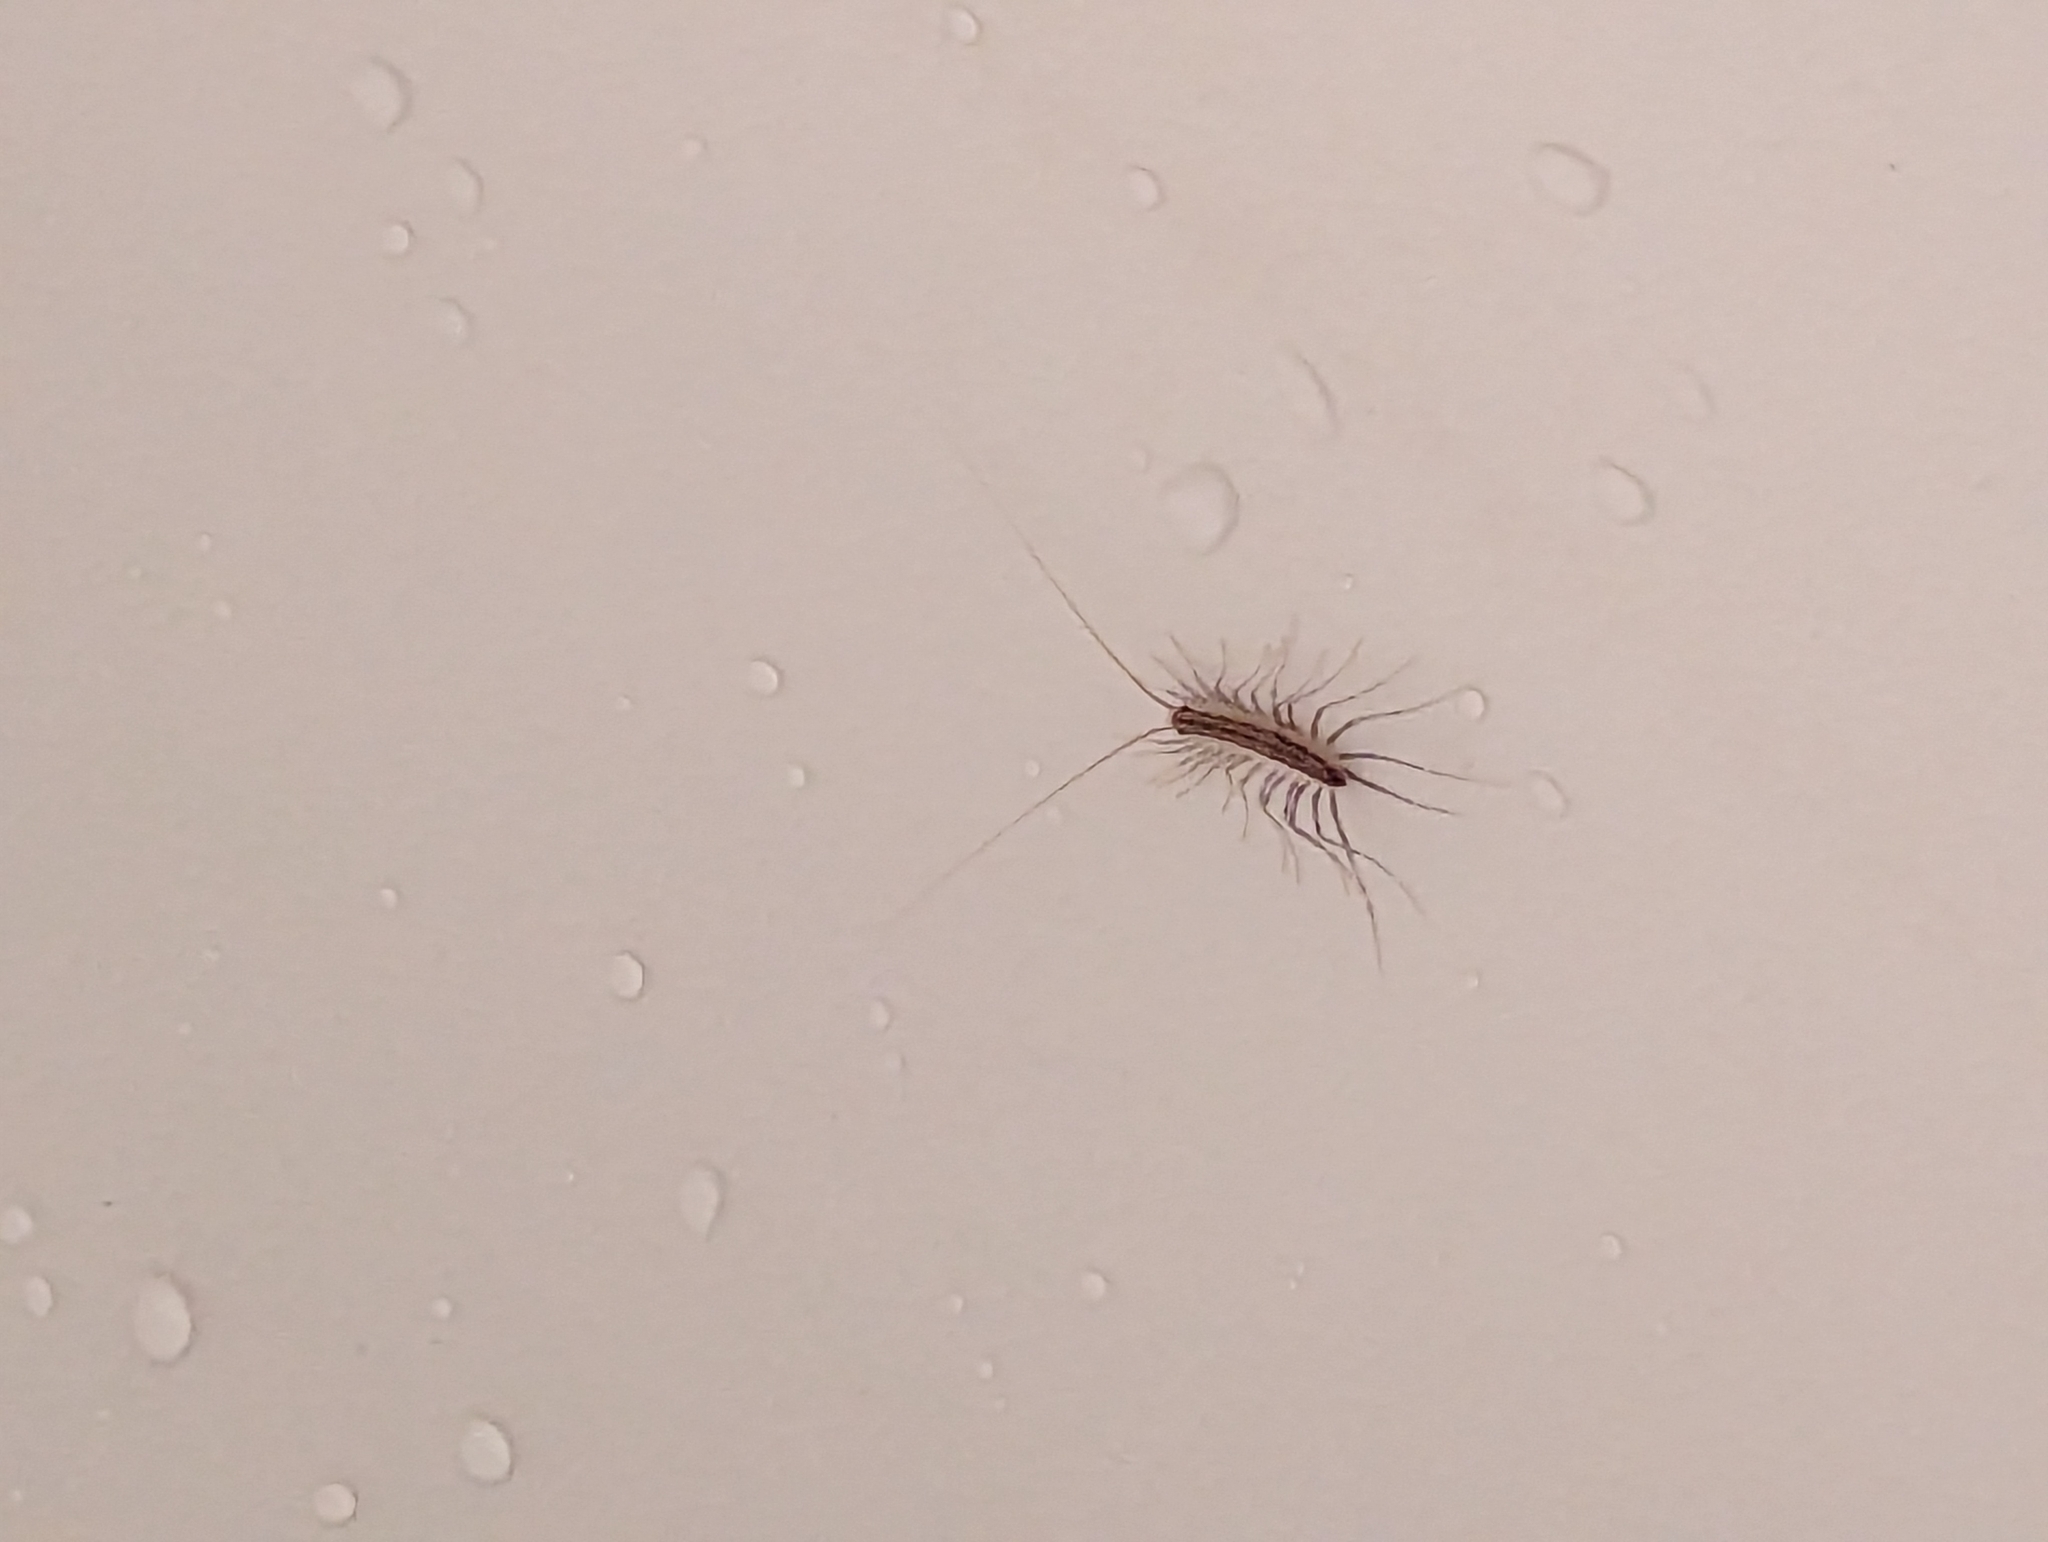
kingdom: Animalia
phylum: Arthropoda
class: Chilopoda
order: Scutigeromorpha
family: Scutigeridae
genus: Scutigera
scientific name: Scutigera coleoptrata
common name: House centipede
